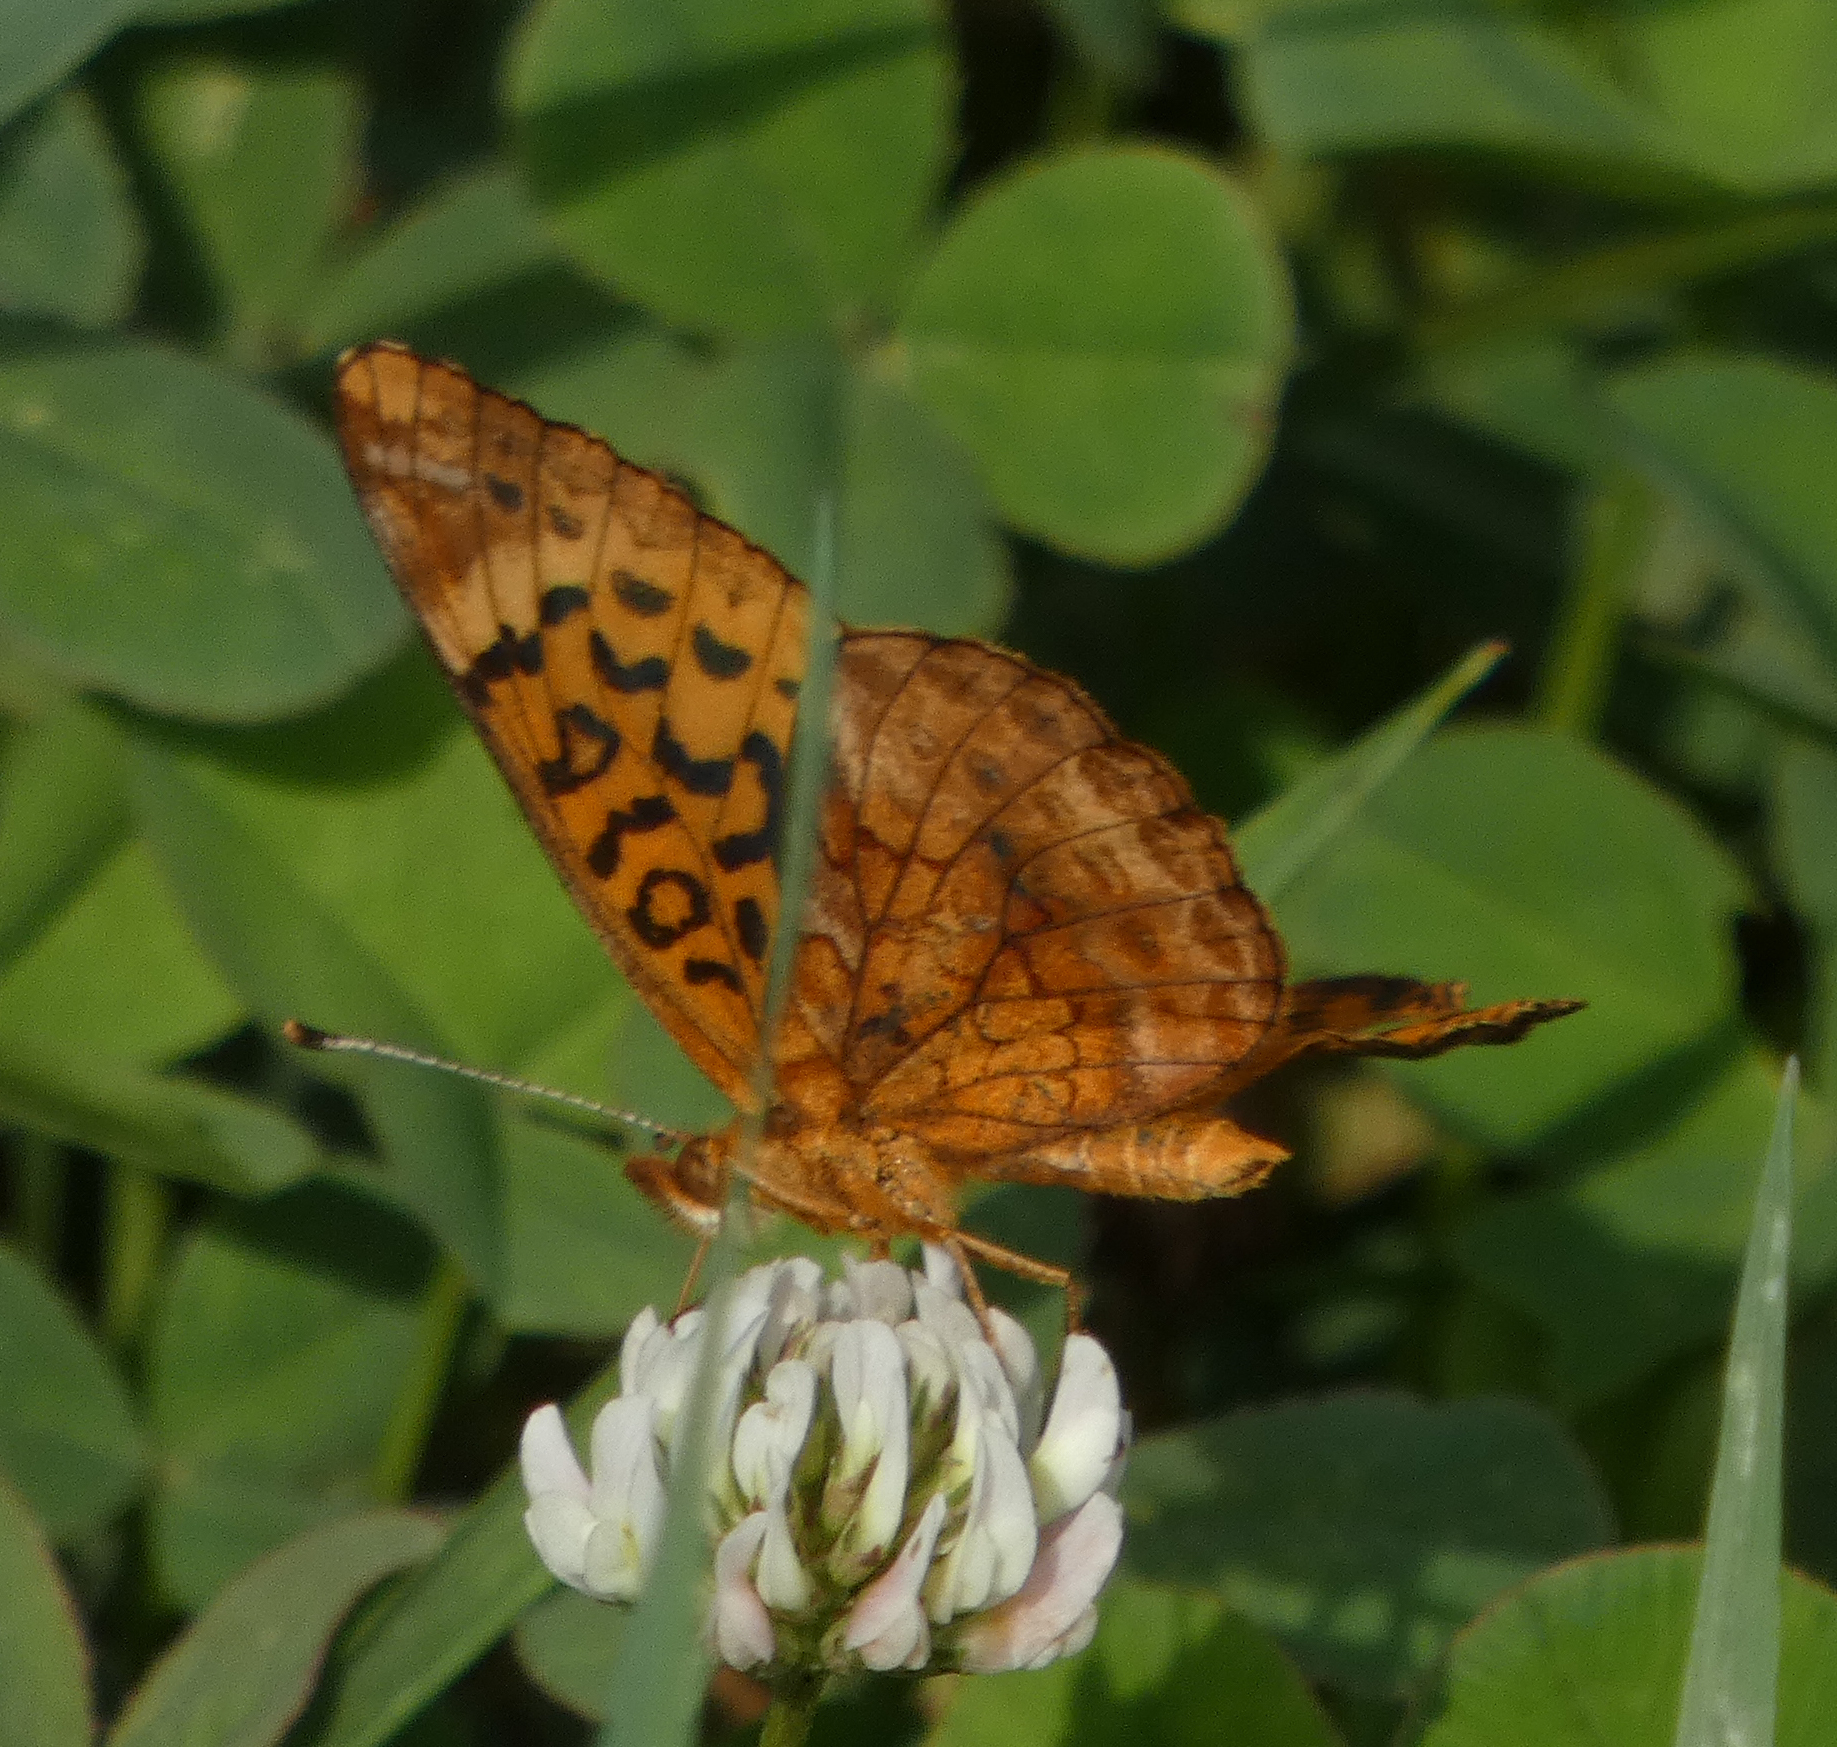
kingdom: Animalia
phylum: Arthropoda
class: Insecta
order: Lepidoptera
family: Nymphalidae
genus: Clossiana
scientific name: Clossiana toddi
